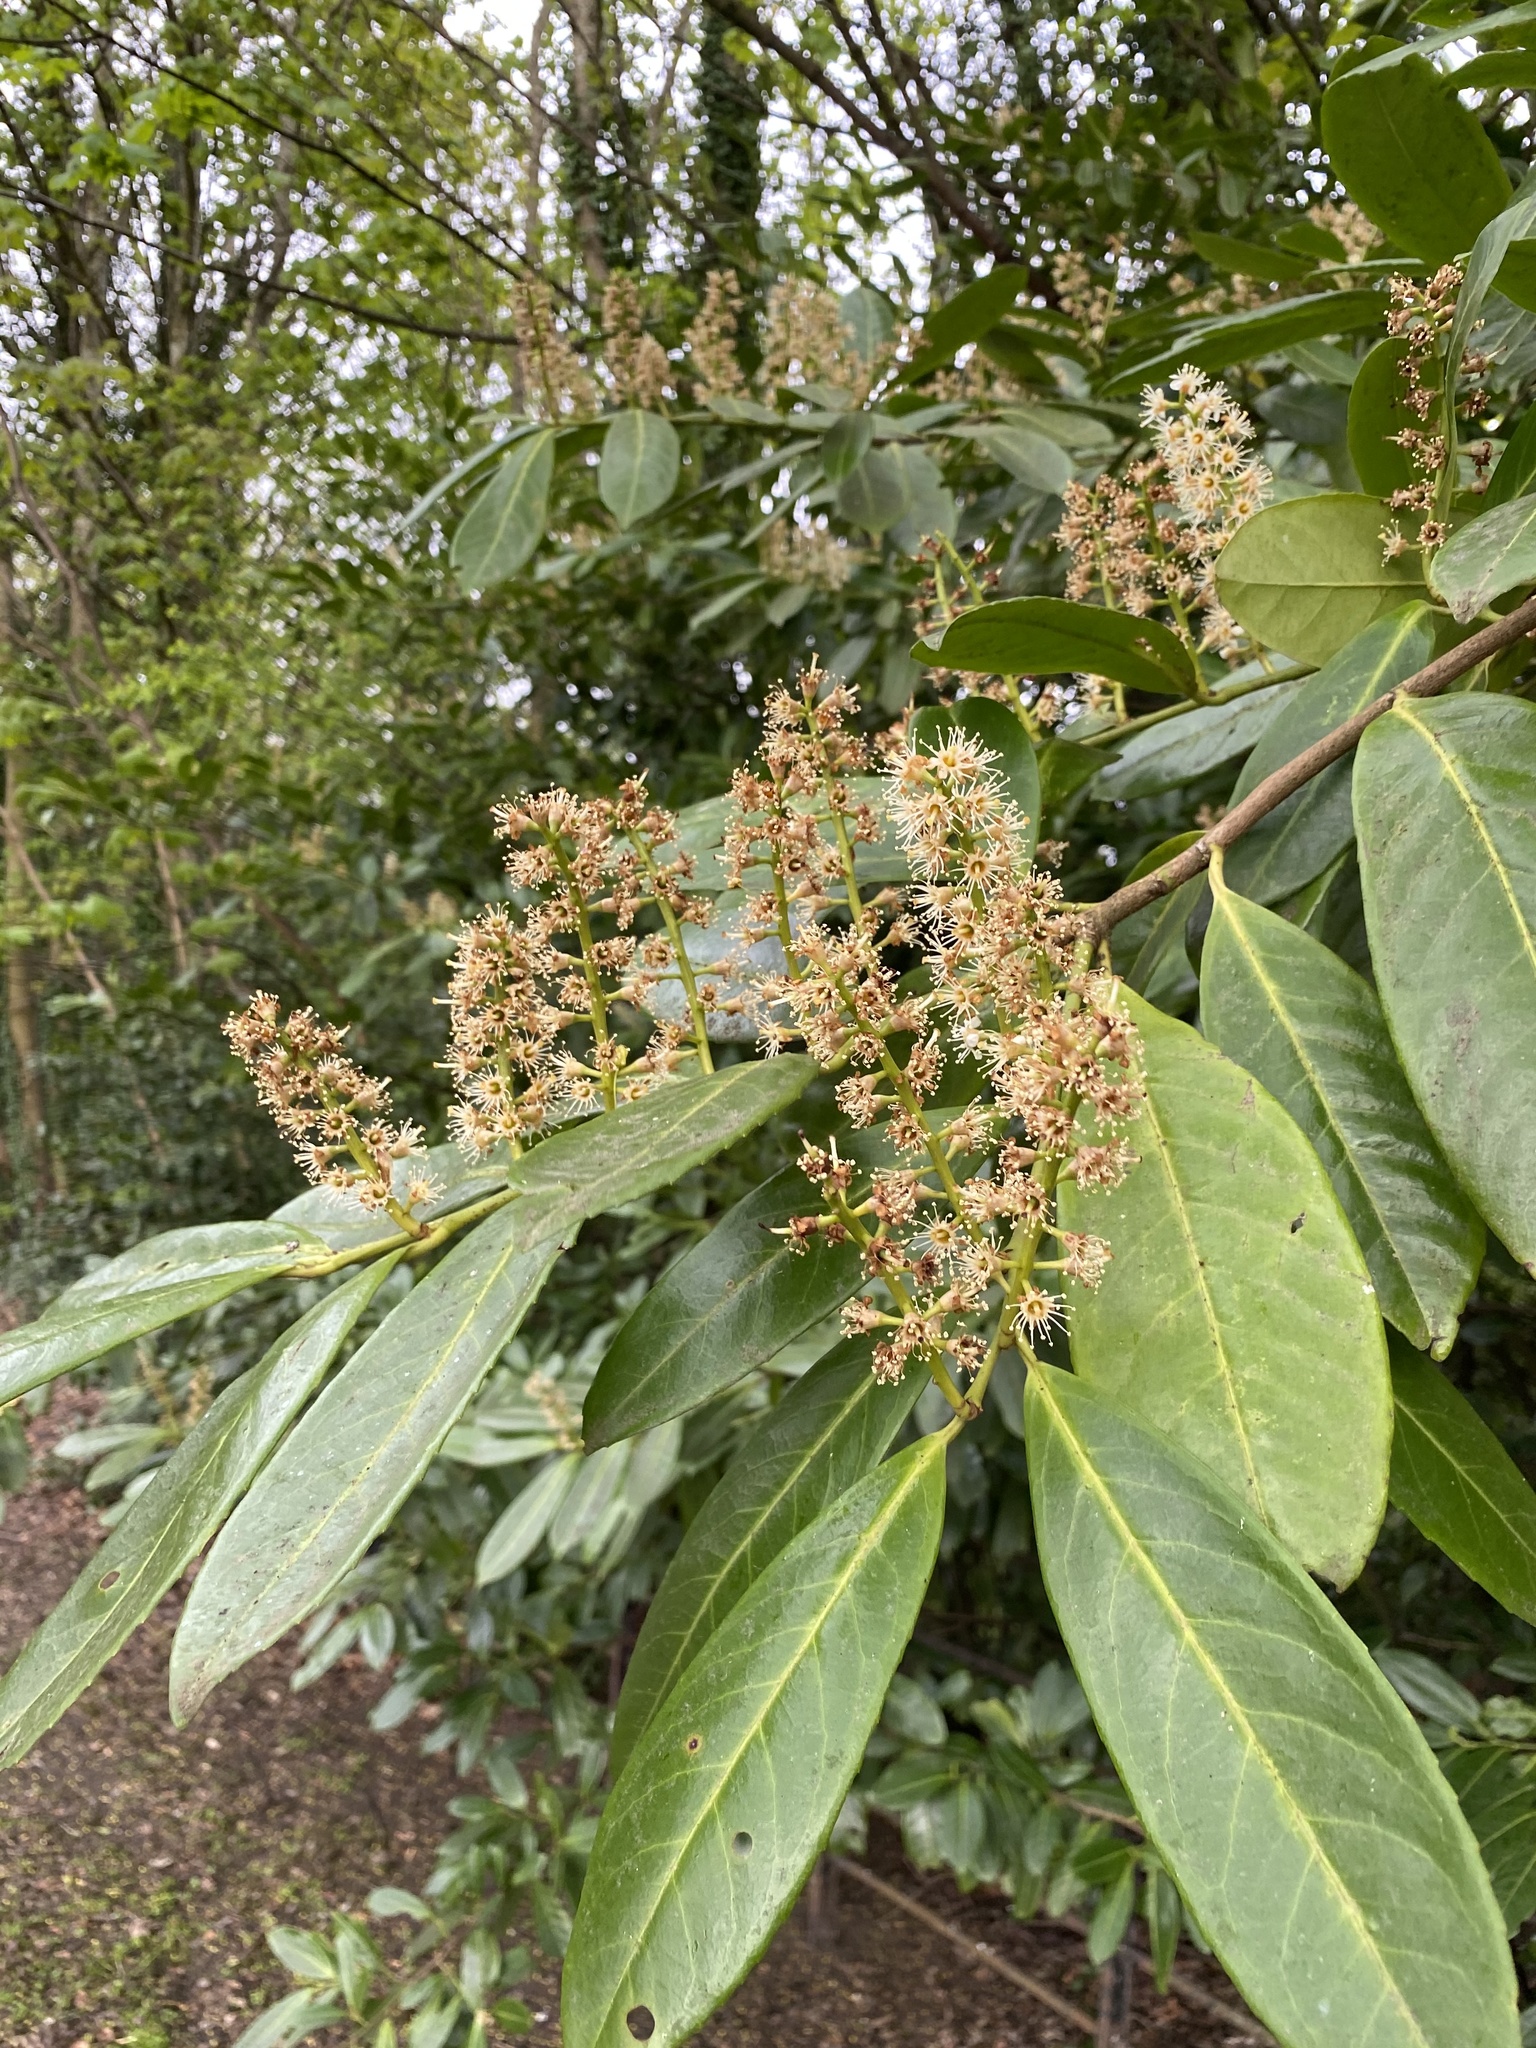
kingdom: Plantae
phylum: Tracheophyta
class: Magnoliopsida
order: Rosales
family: Rosaceae
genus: Prunus
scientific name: Prunus laurocerasus
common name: Cherry laurel
